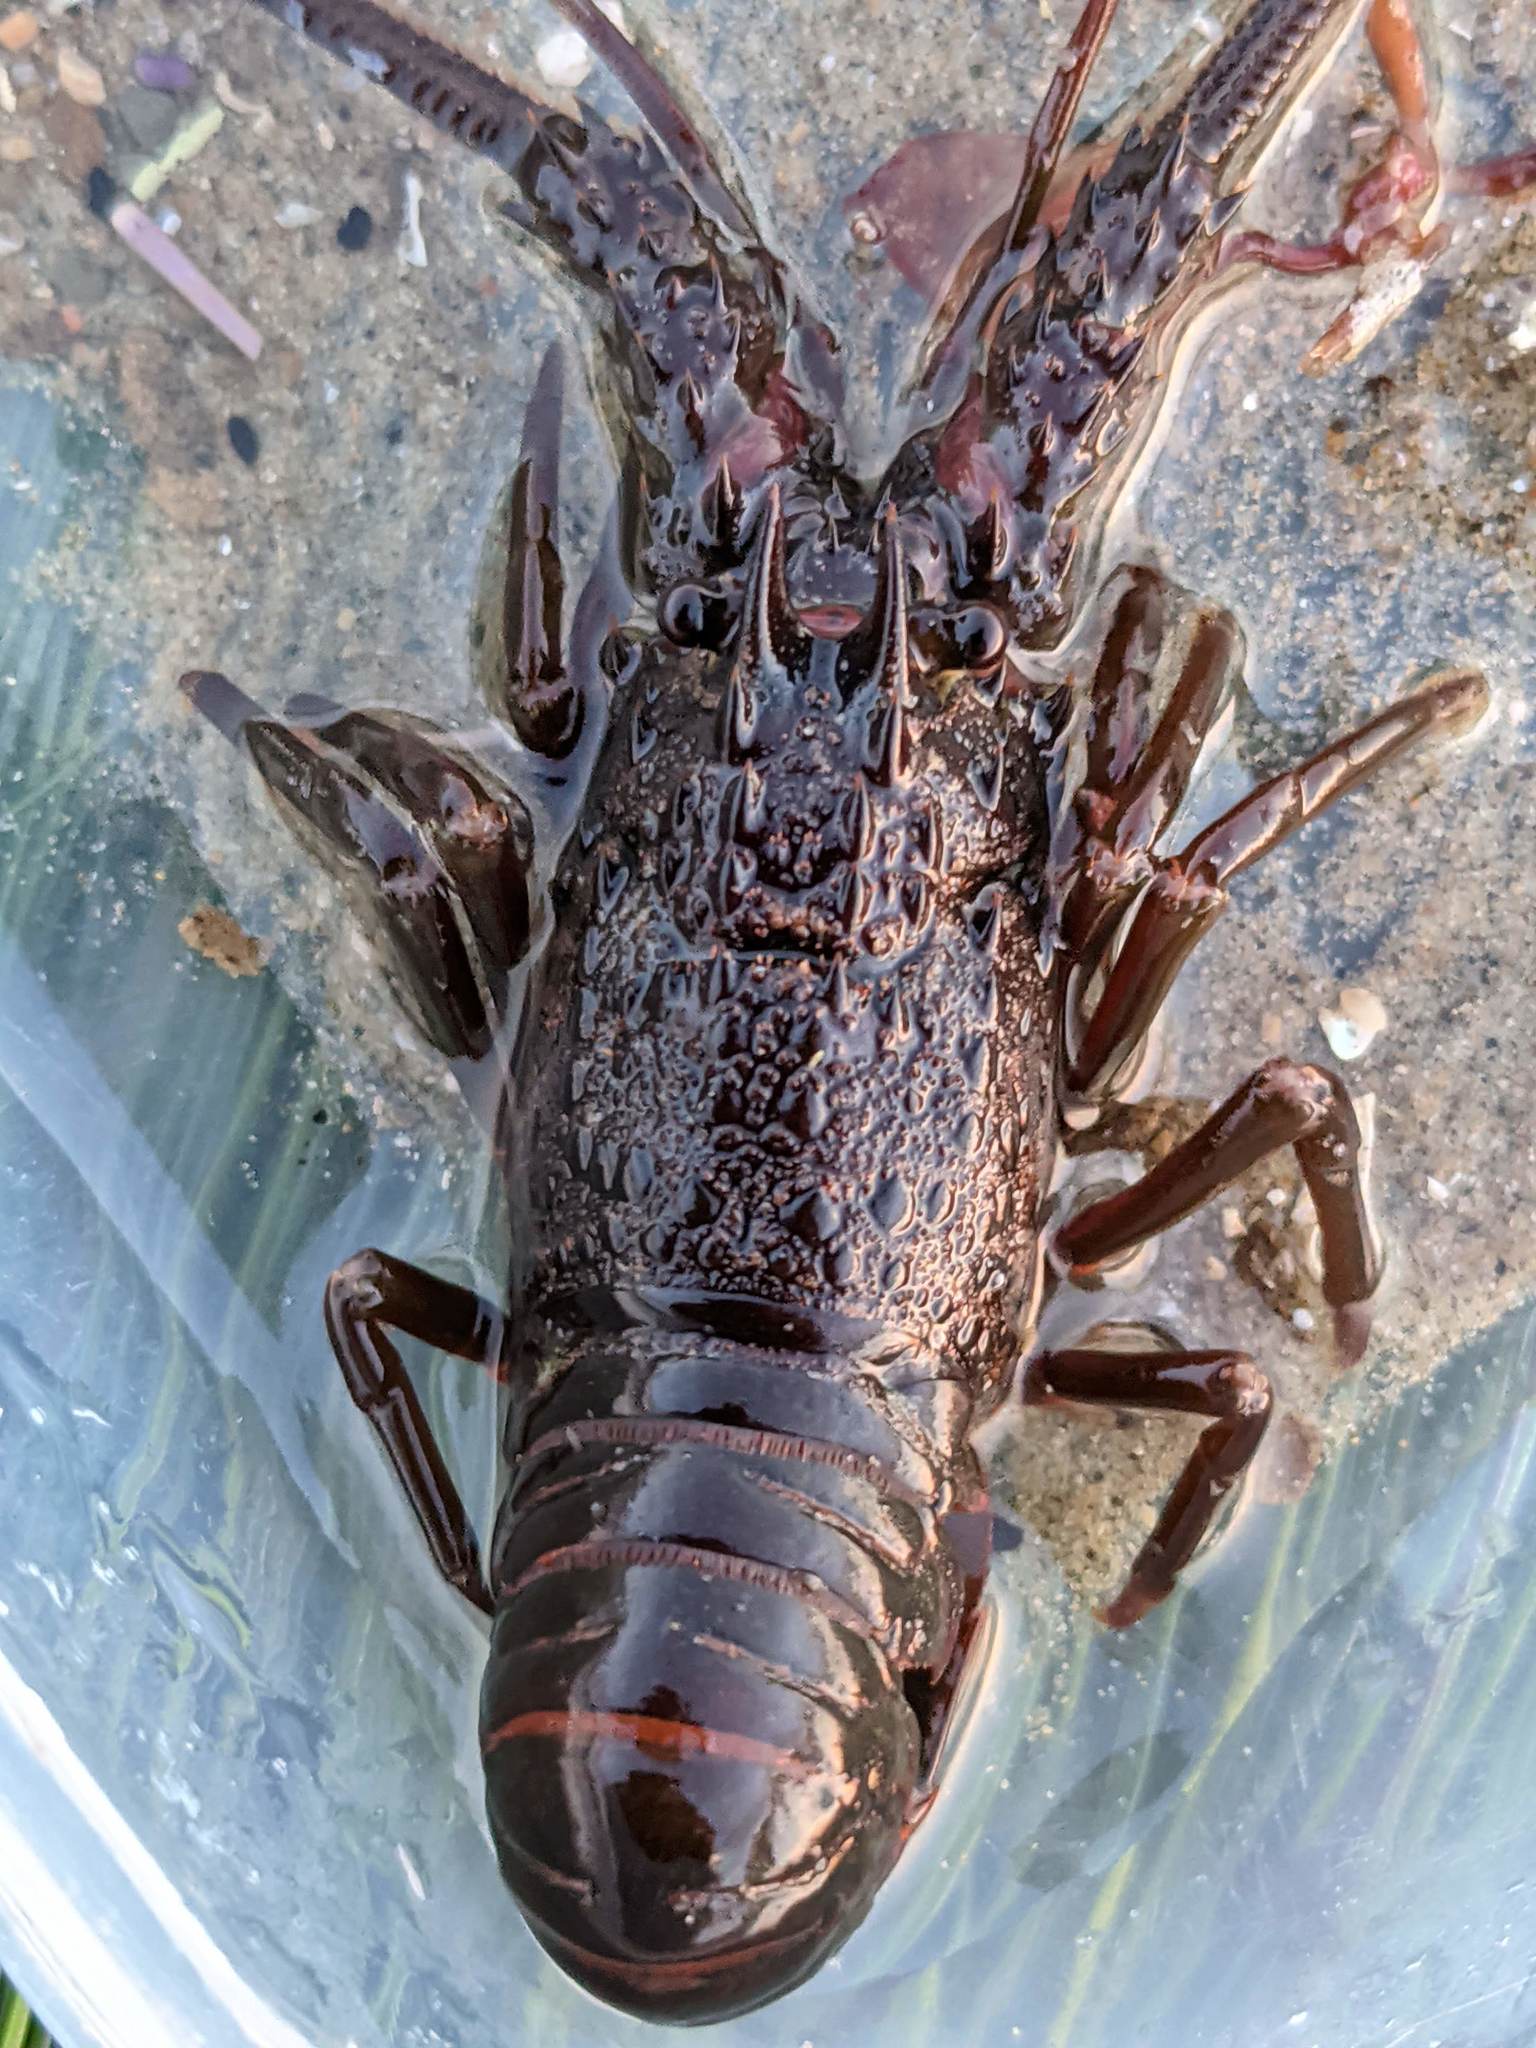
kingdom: Animalia
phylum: Arthropoda
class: Malacostraca
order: Decapoda
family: Palinuridae
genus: Panulirus
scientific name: Panulirus interruptus
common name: California spiny lobster
